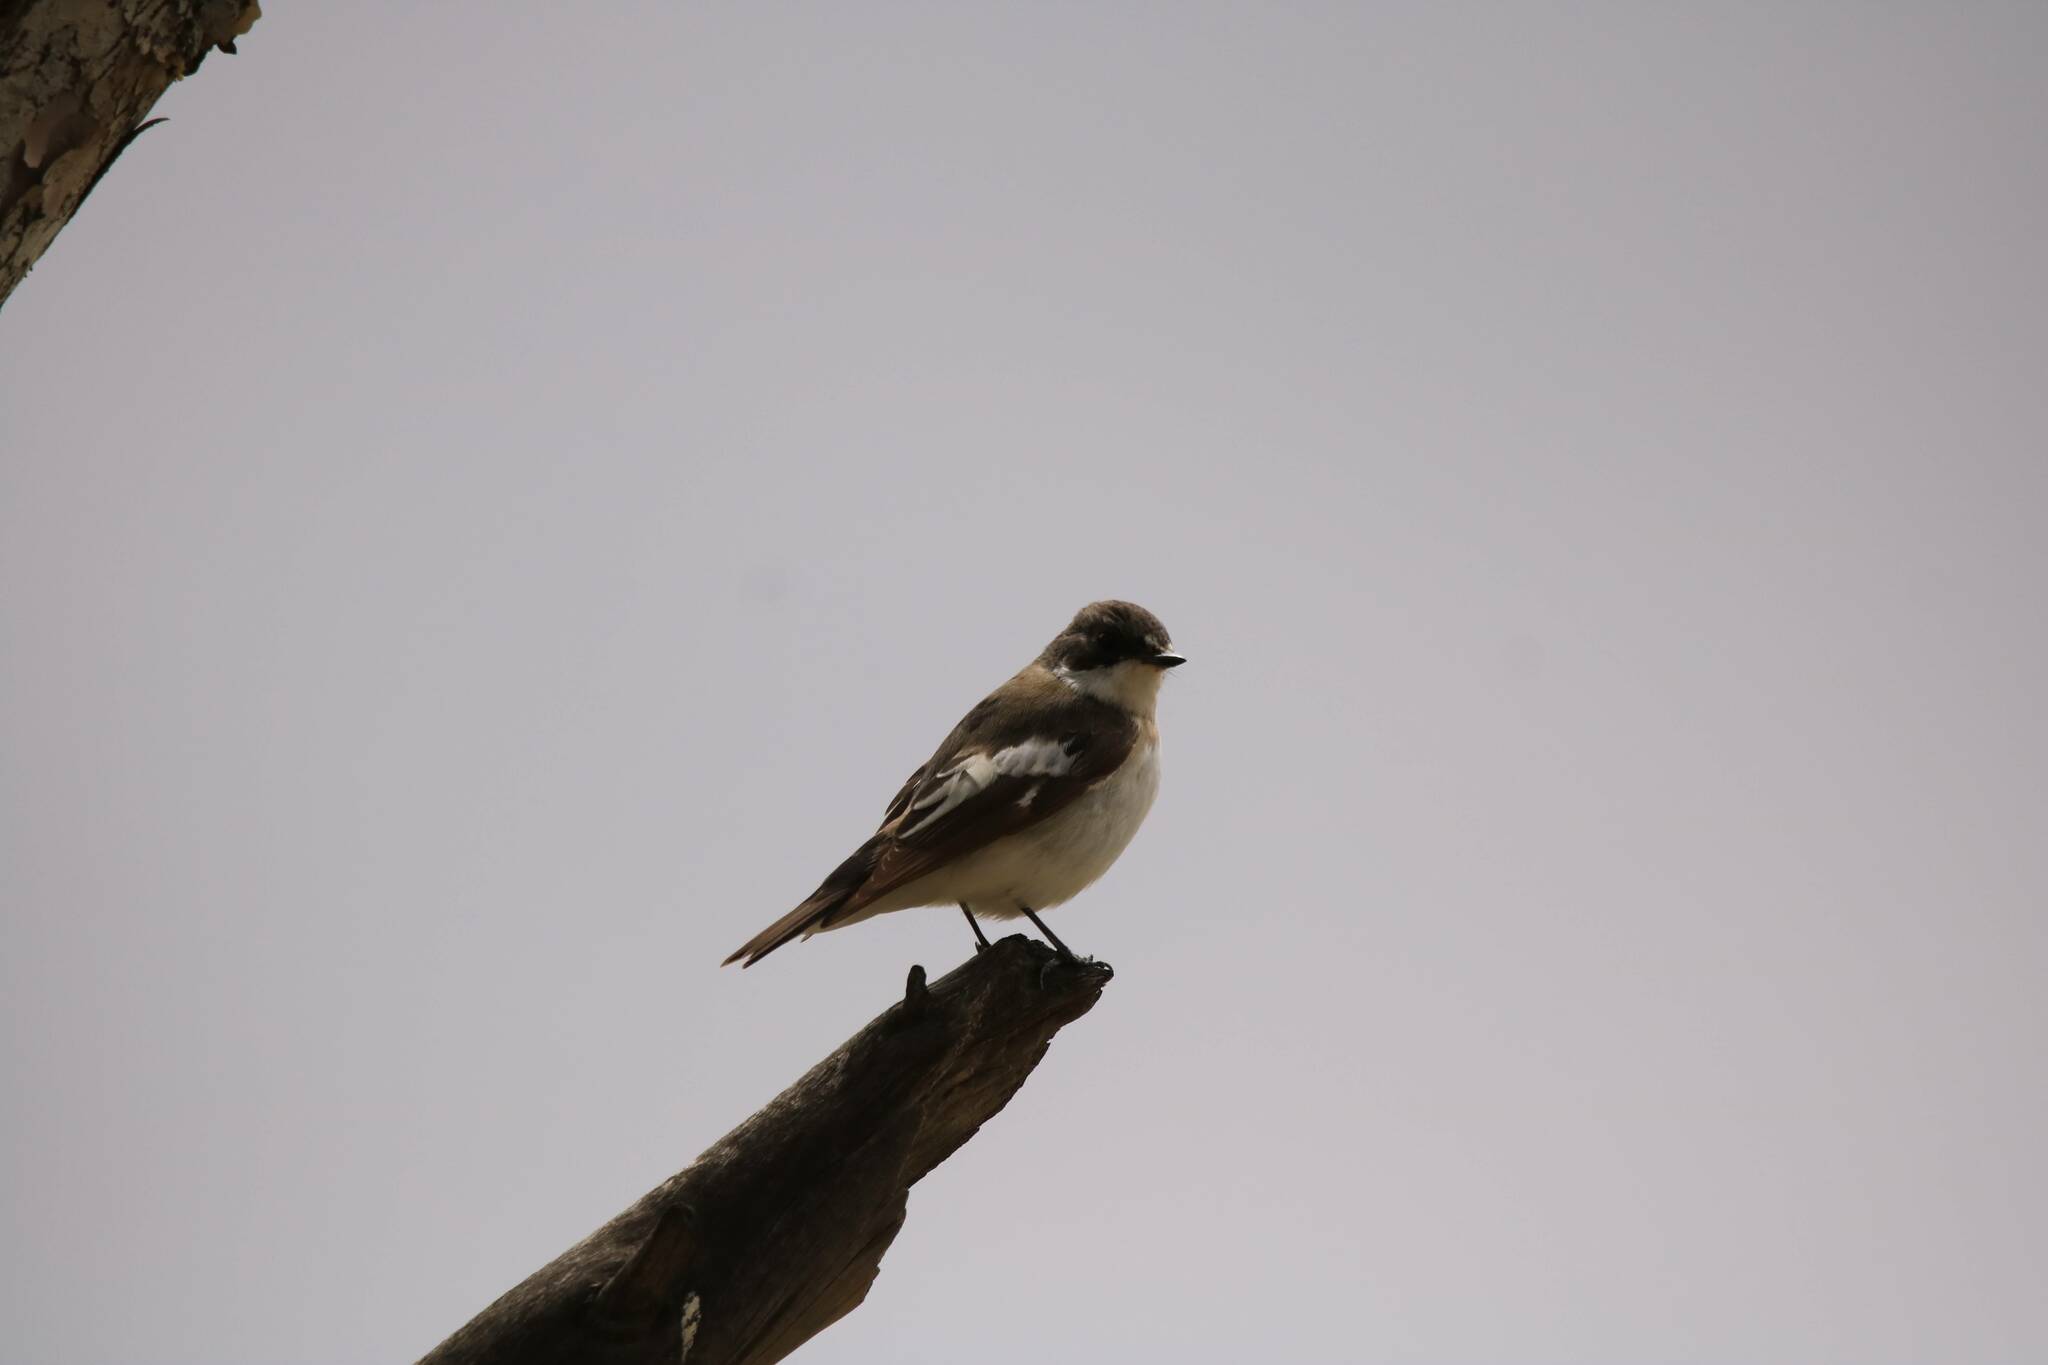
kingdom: Animalia
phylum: Chordata
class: Aves
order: Passeriformes
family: Muscicapidae
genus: Ficedula
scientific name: Ficedula hypoleuca
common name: European pied flycatcher
